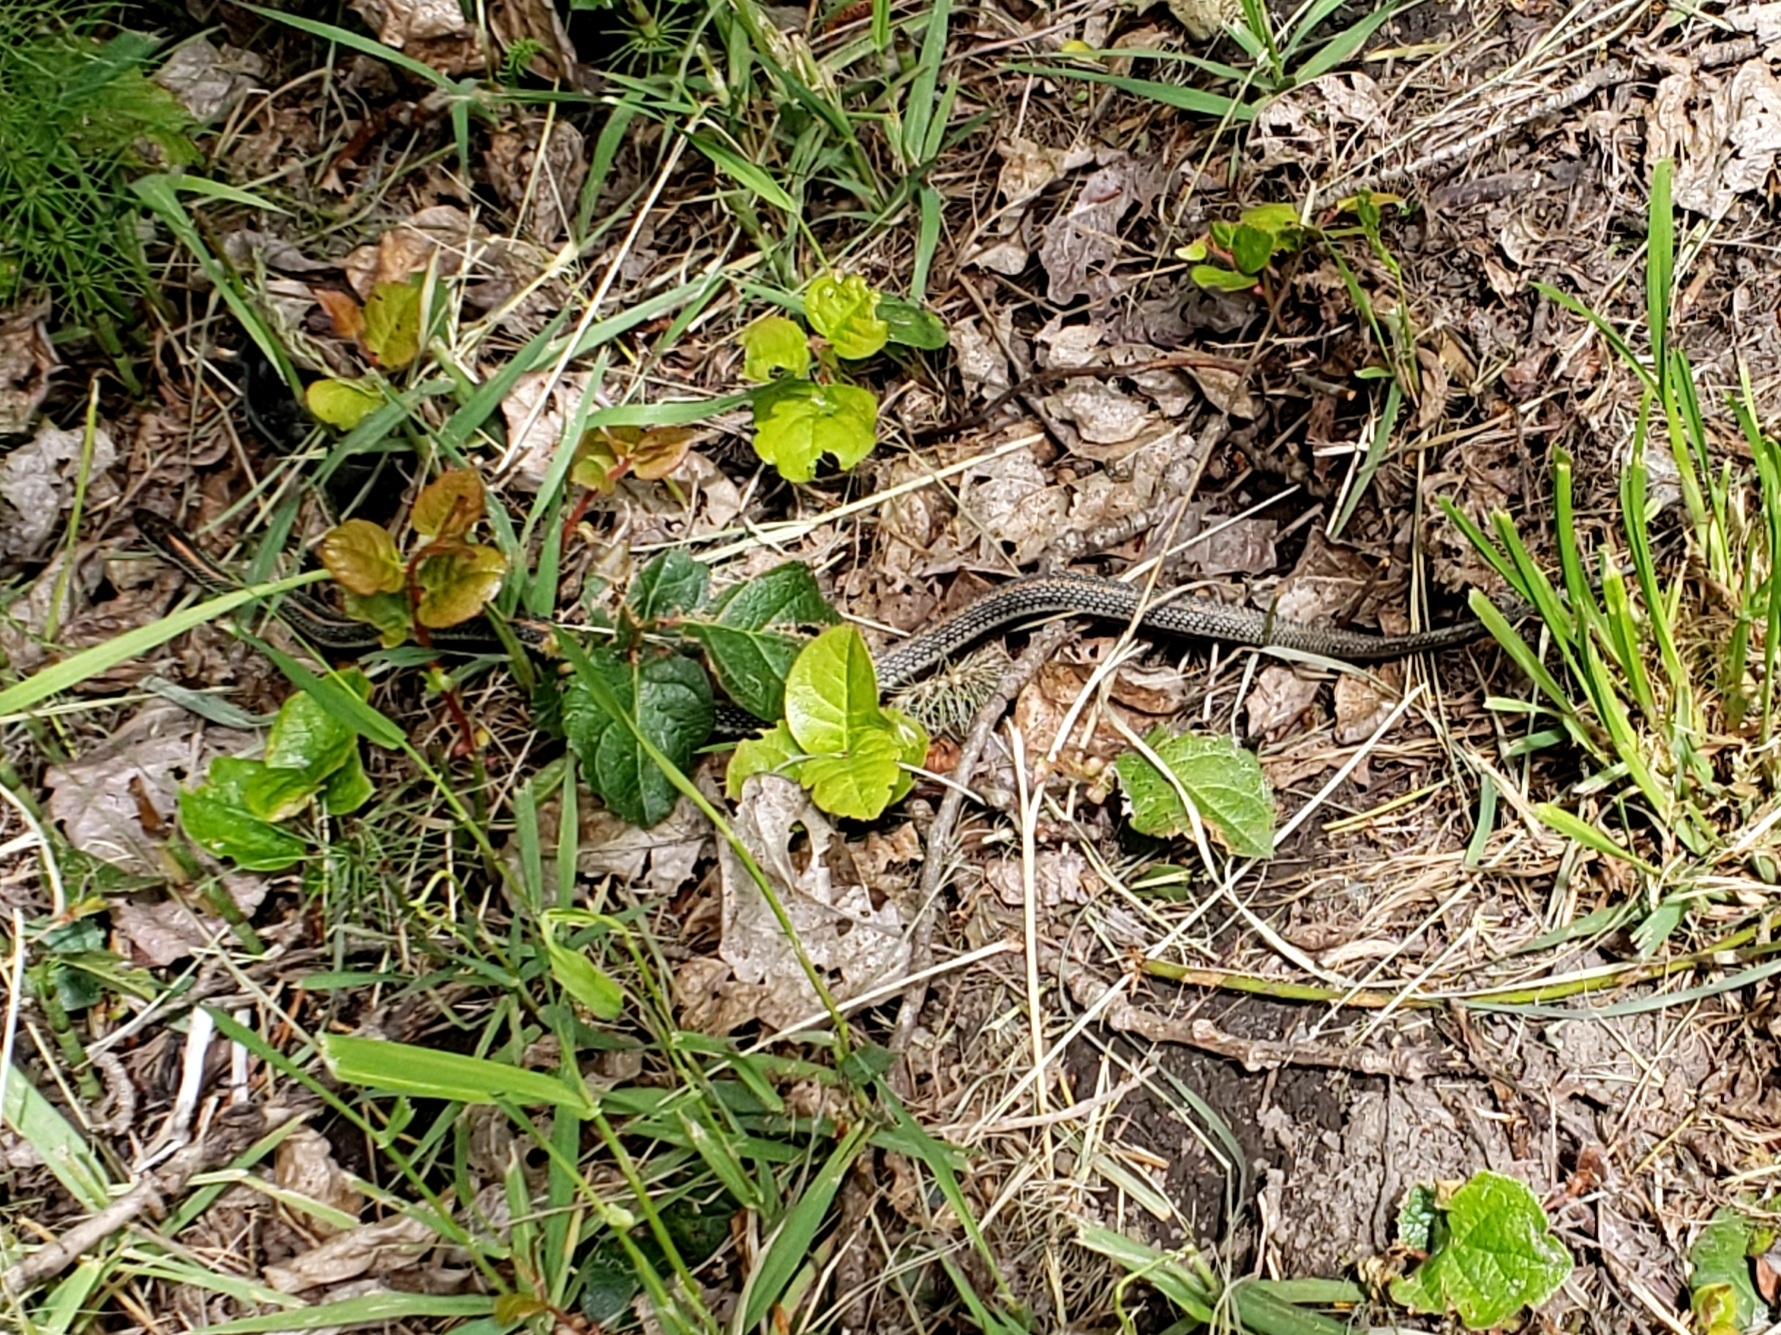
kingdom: Animalia
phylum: Chordata
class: Squamata
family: Colubridae
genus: Thamnophis
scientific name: Thamnophis ordinoides
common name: Northwestern garter snake
